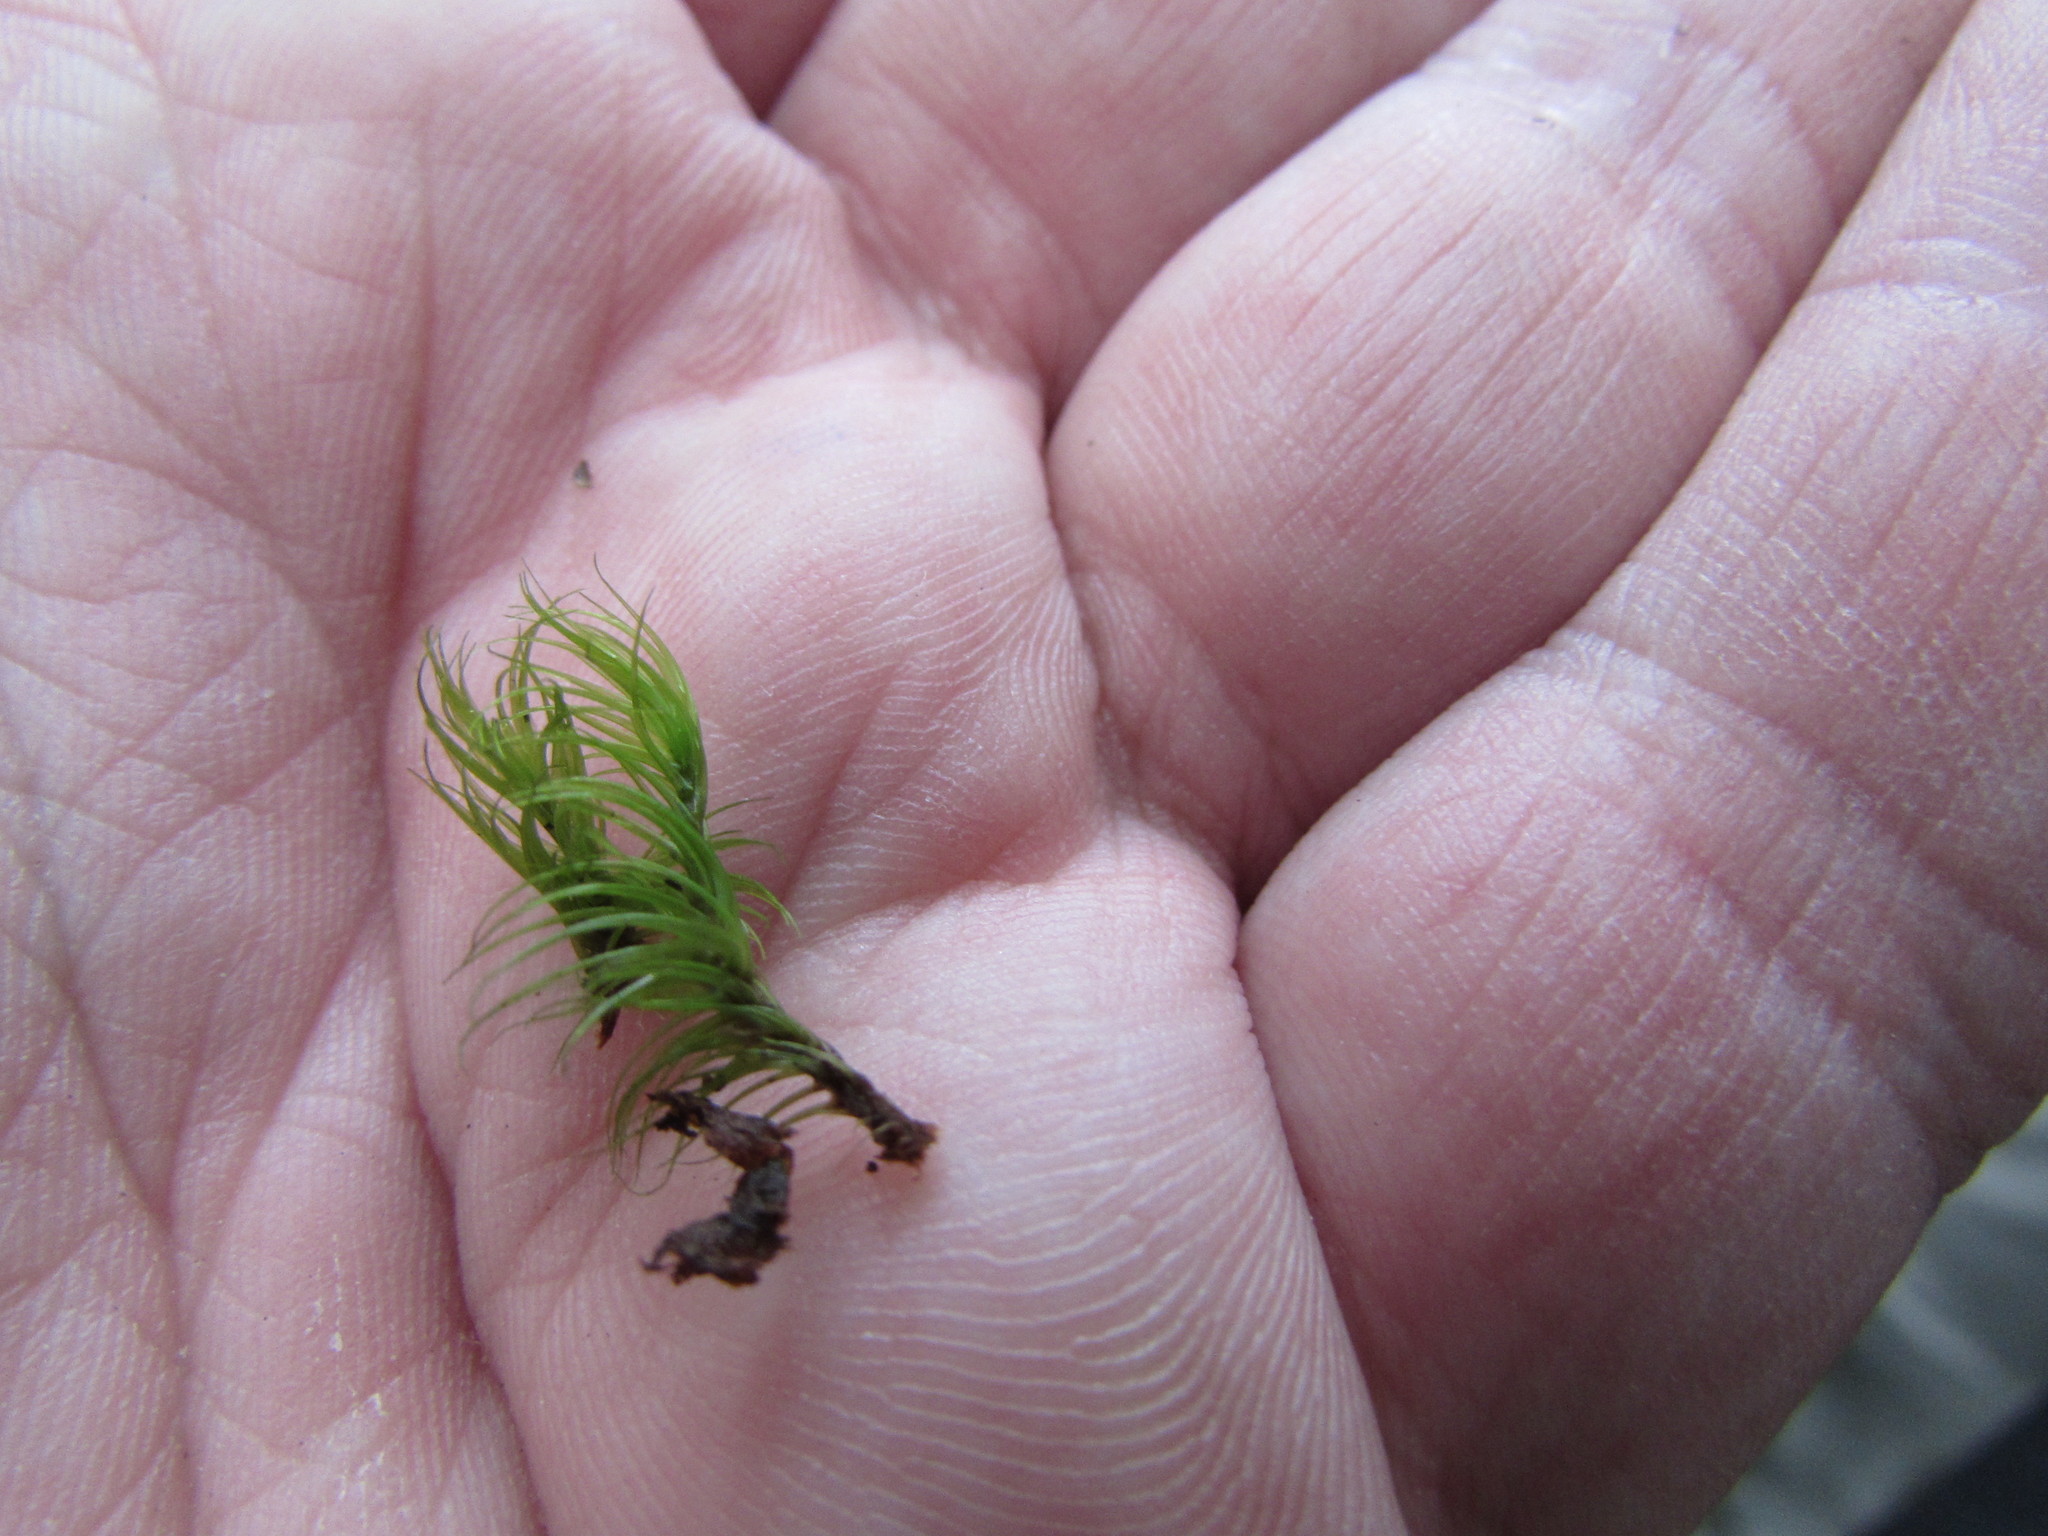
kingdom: Plantae
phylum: Bryophyta
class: Bryopsida
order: Dicranales
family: Dicranaceae
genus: Dicranum
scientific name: Dicranum scoparium
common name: Broom fork-moss
